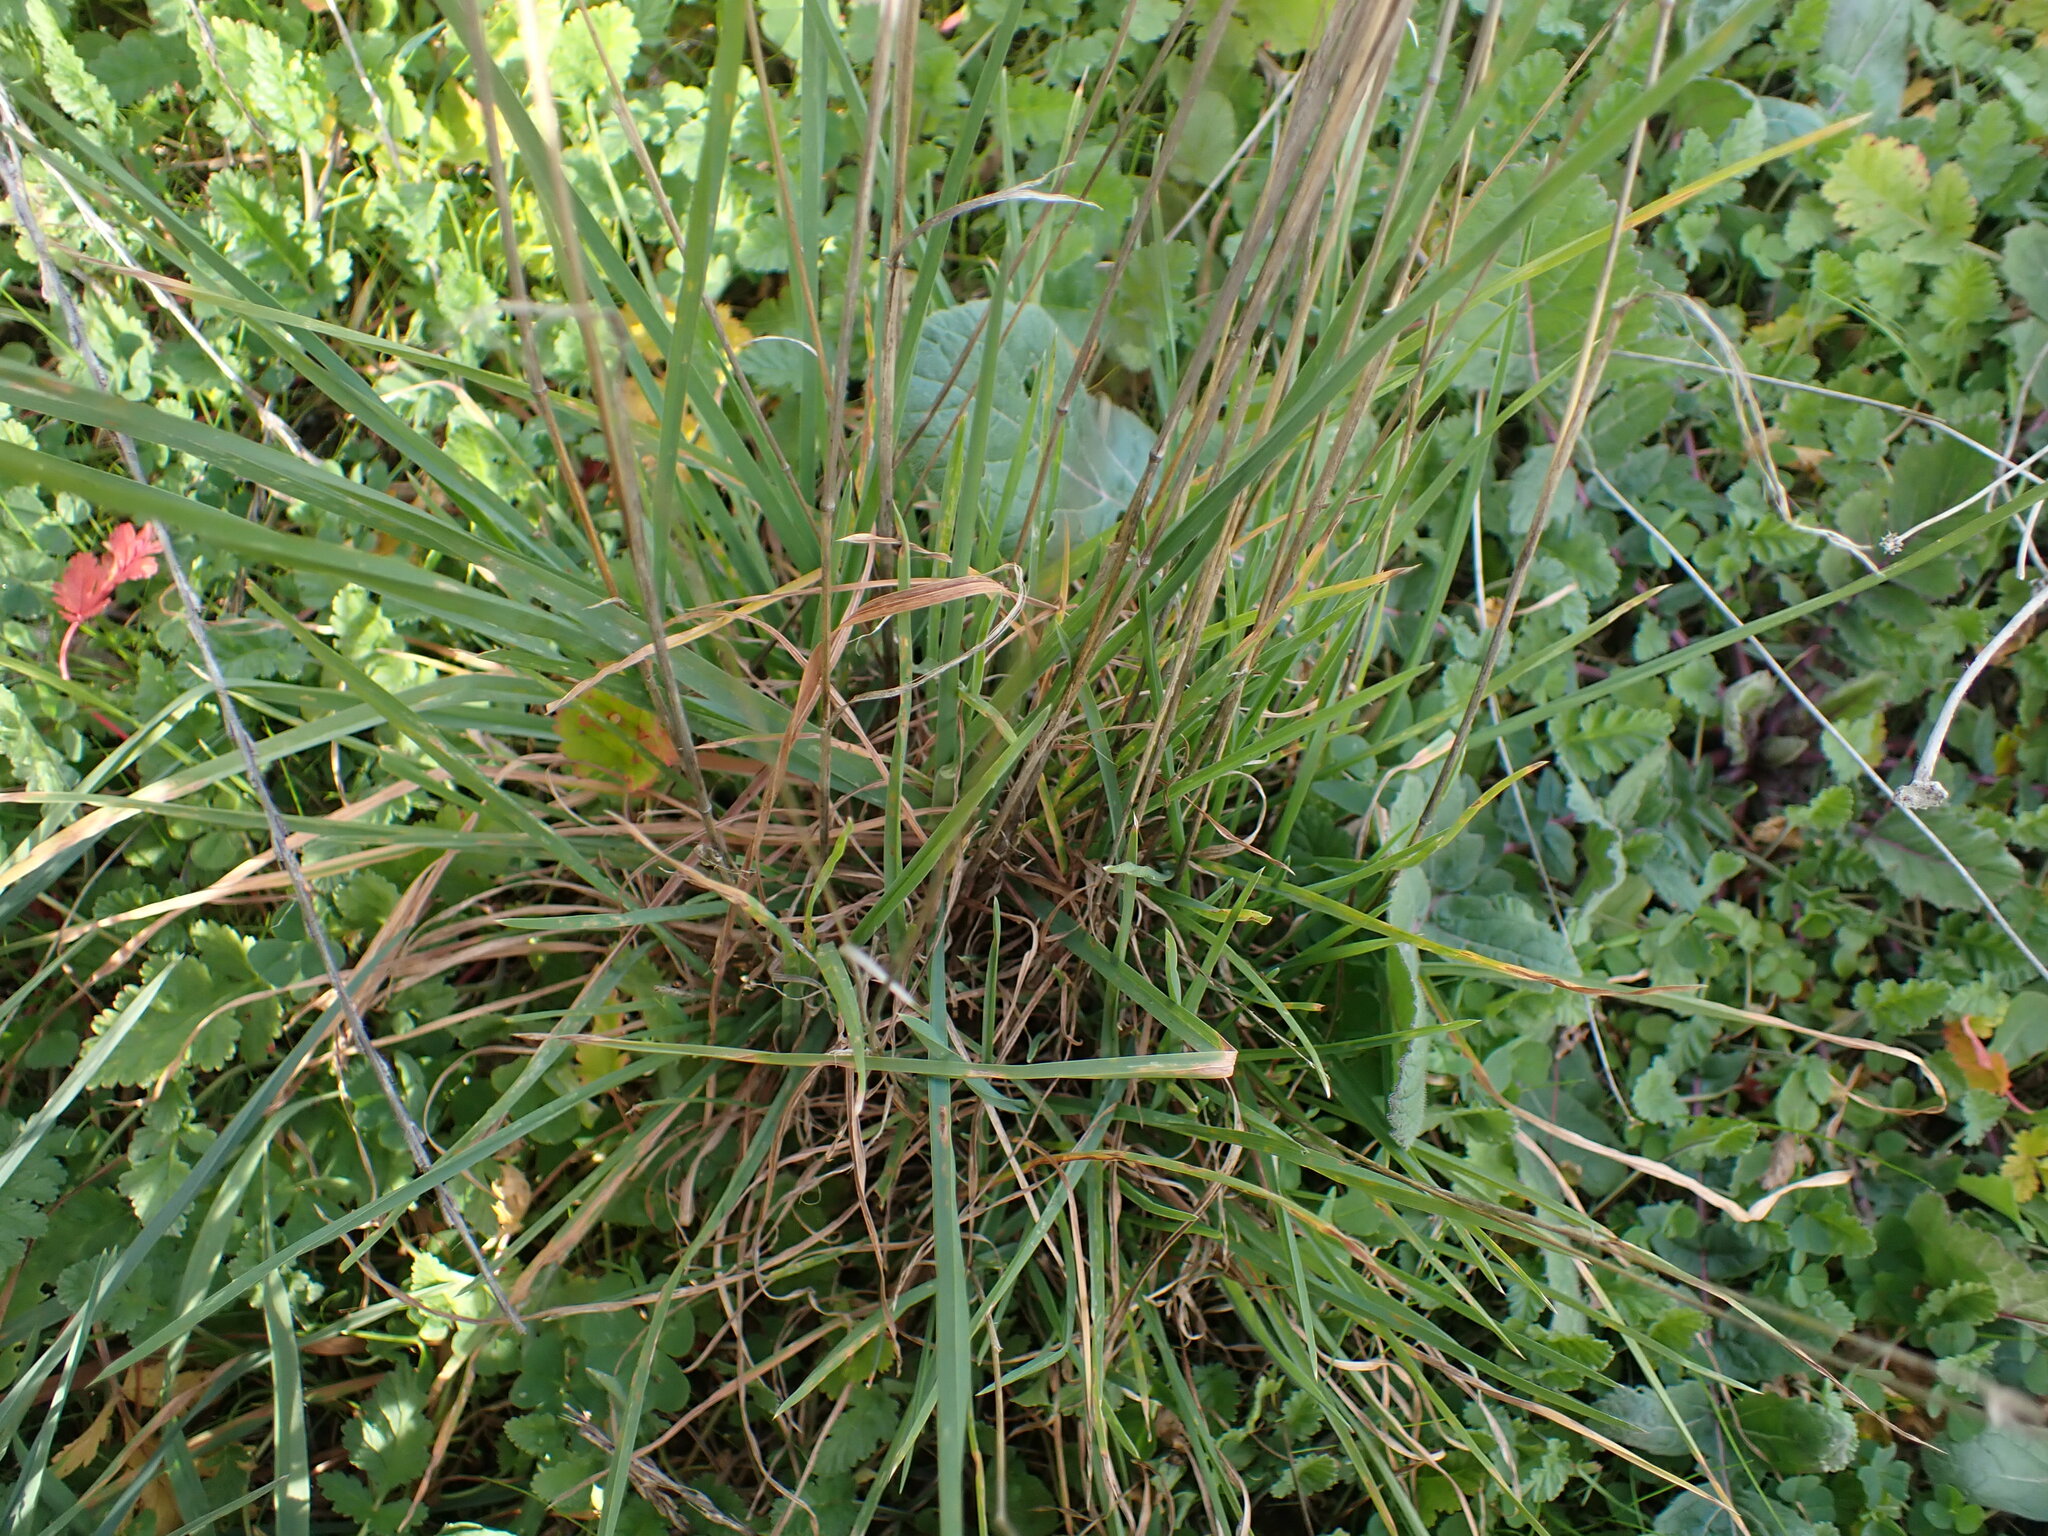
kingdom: Plantae
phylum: Tracheophyta
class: Liliopsida
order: Poales
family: Poaceae
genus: Dactylis
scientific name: Dactylis glomerata
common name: Orchardgrass
